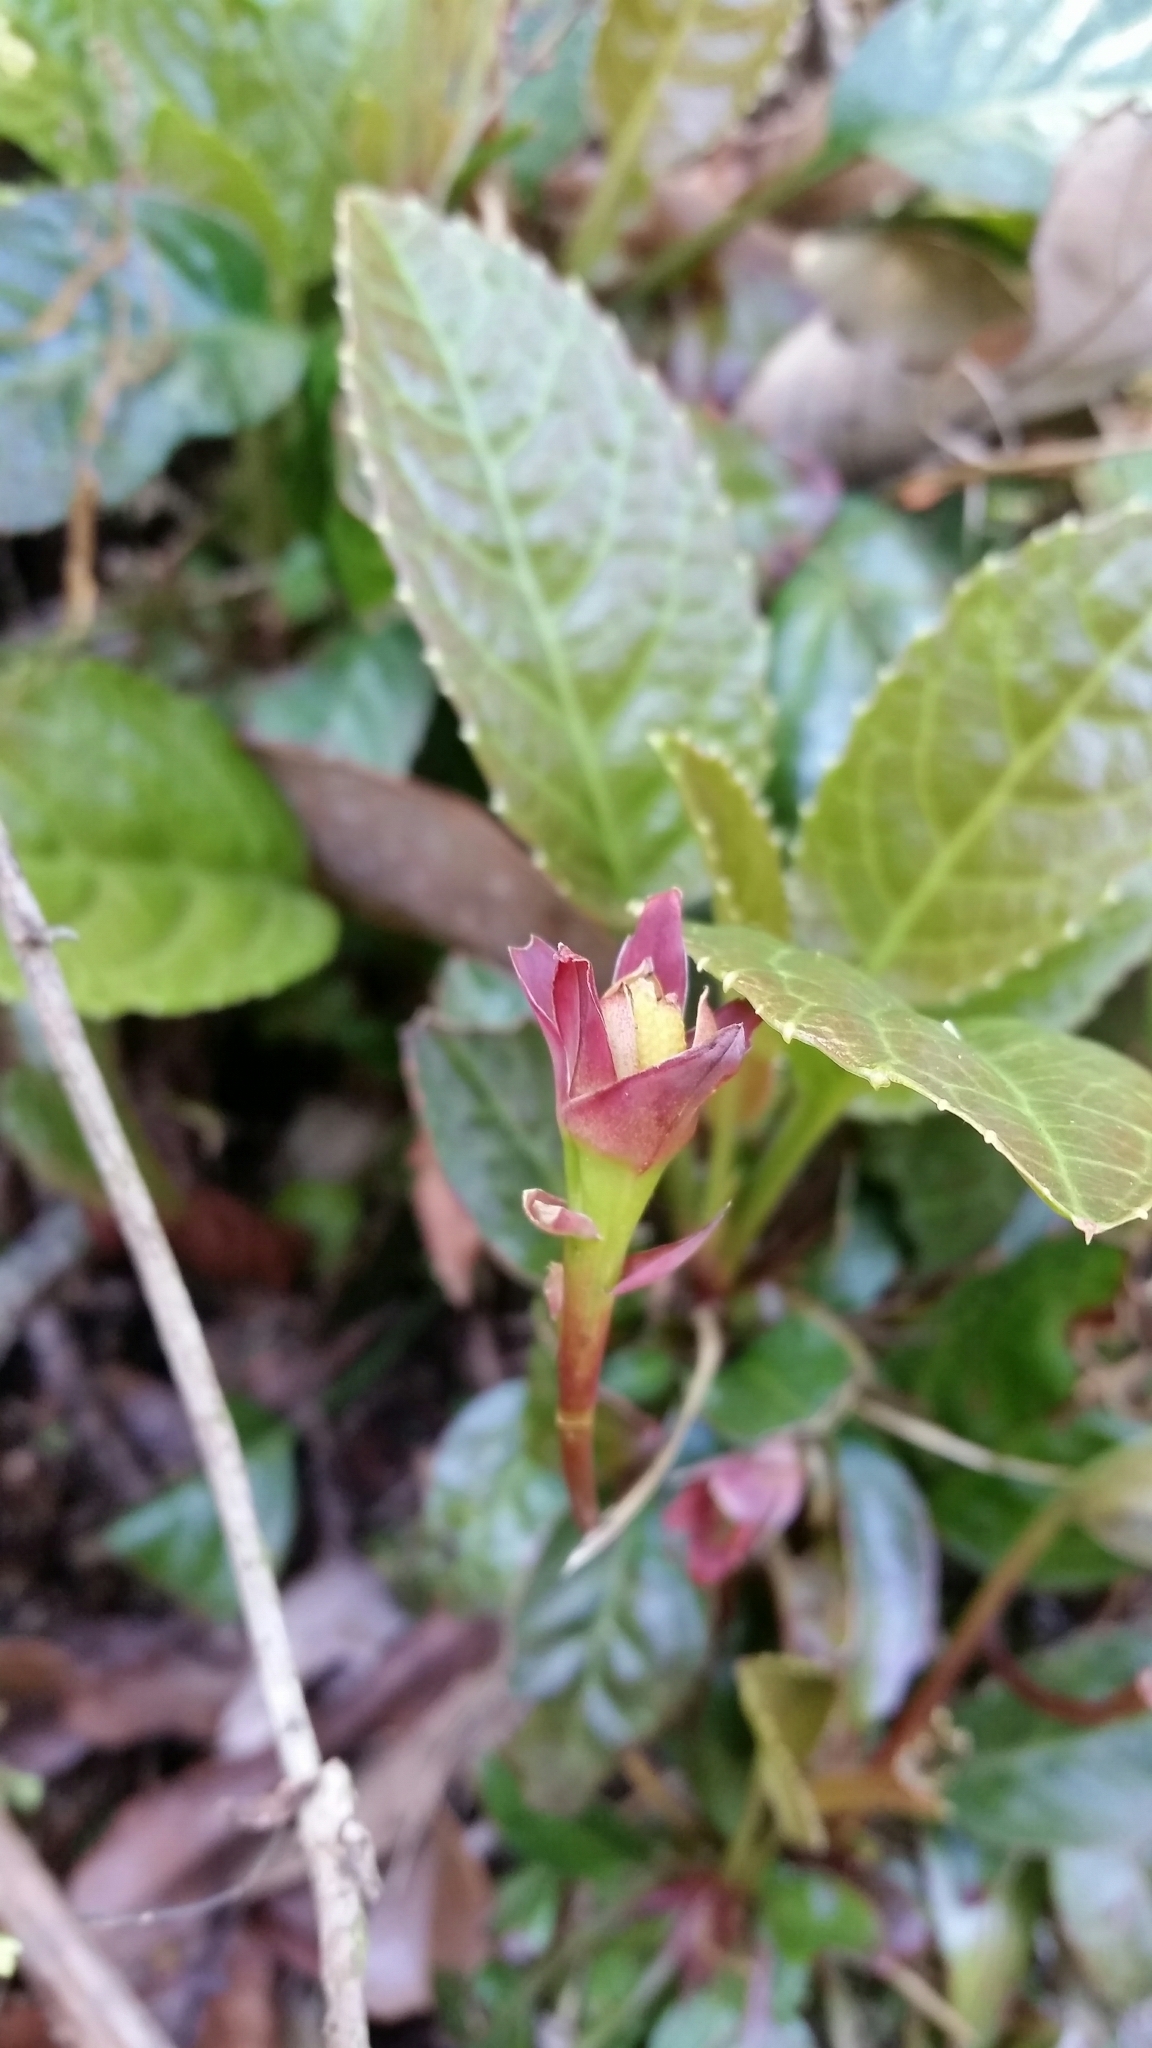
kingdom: Plantae
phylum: Tracheophyta
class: Magnoliopsida
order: Ericales
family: Diapensiaceae
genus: Shortia
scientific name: Shortia rotata
